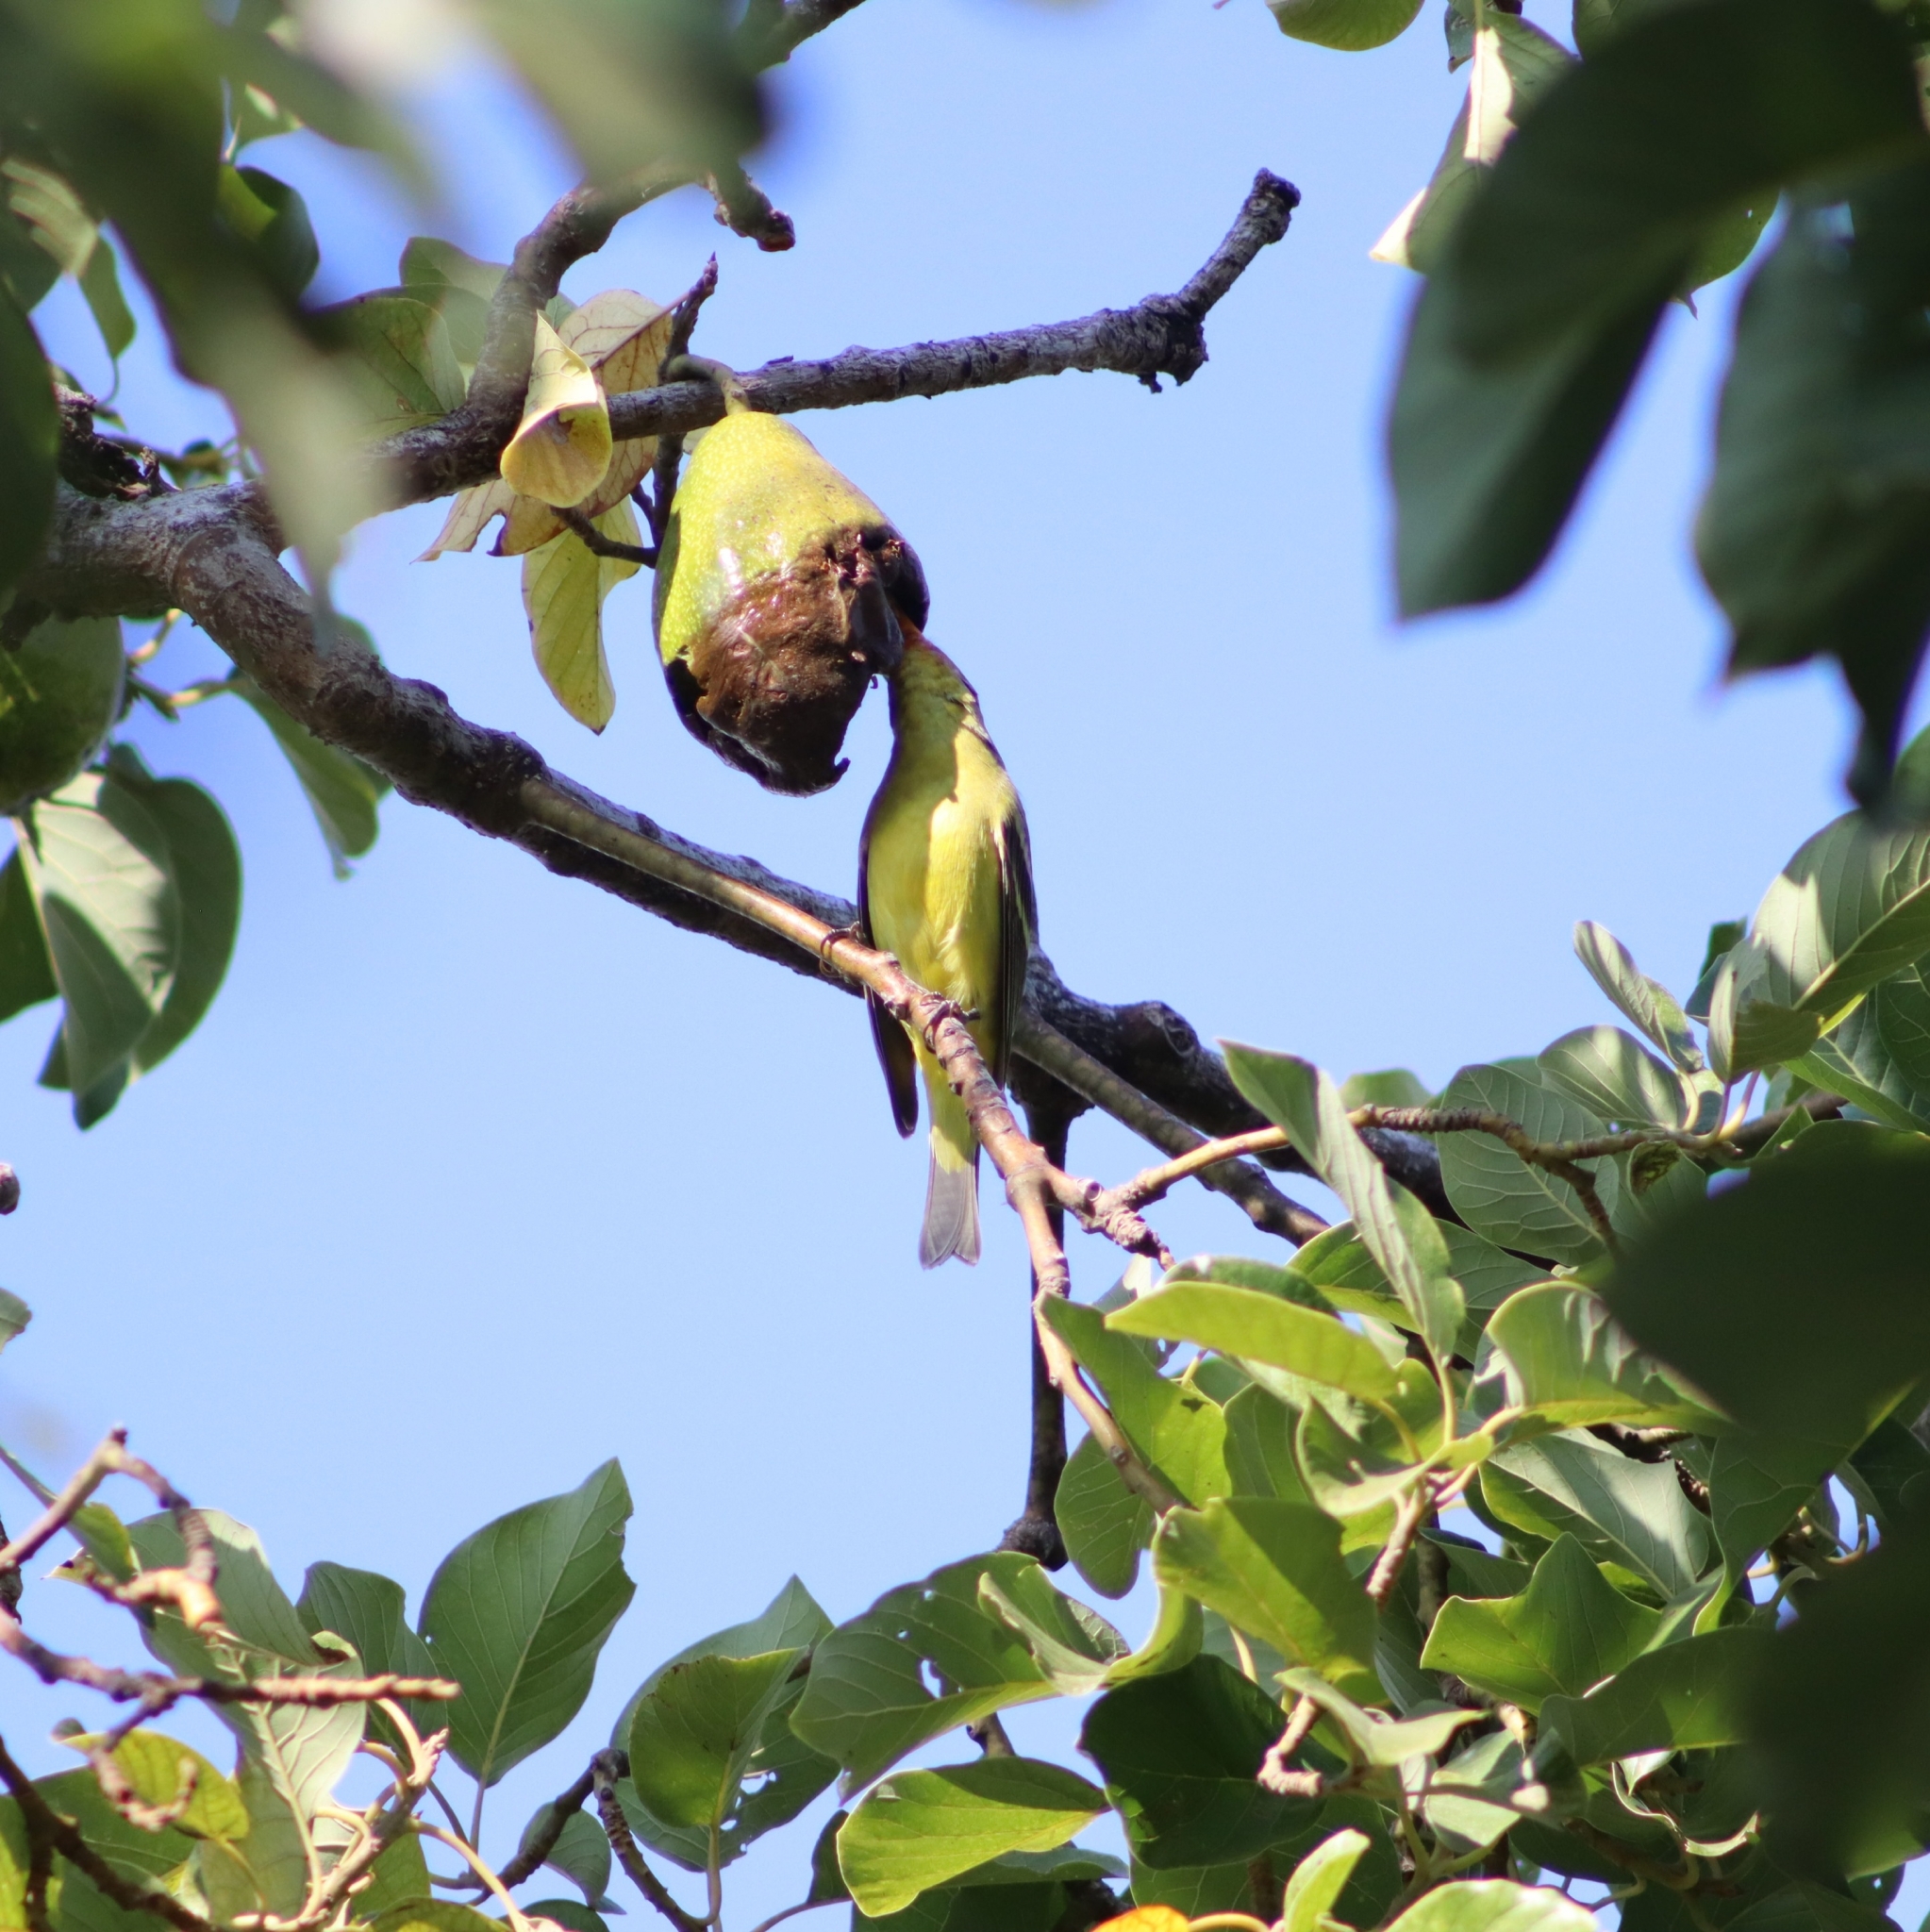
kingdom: Animalia
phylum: Chordata
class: Aves
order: Passeriformes
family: Cardinalidae
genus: Piranga
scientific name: Piranga ludoviciana
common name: Western tanager
